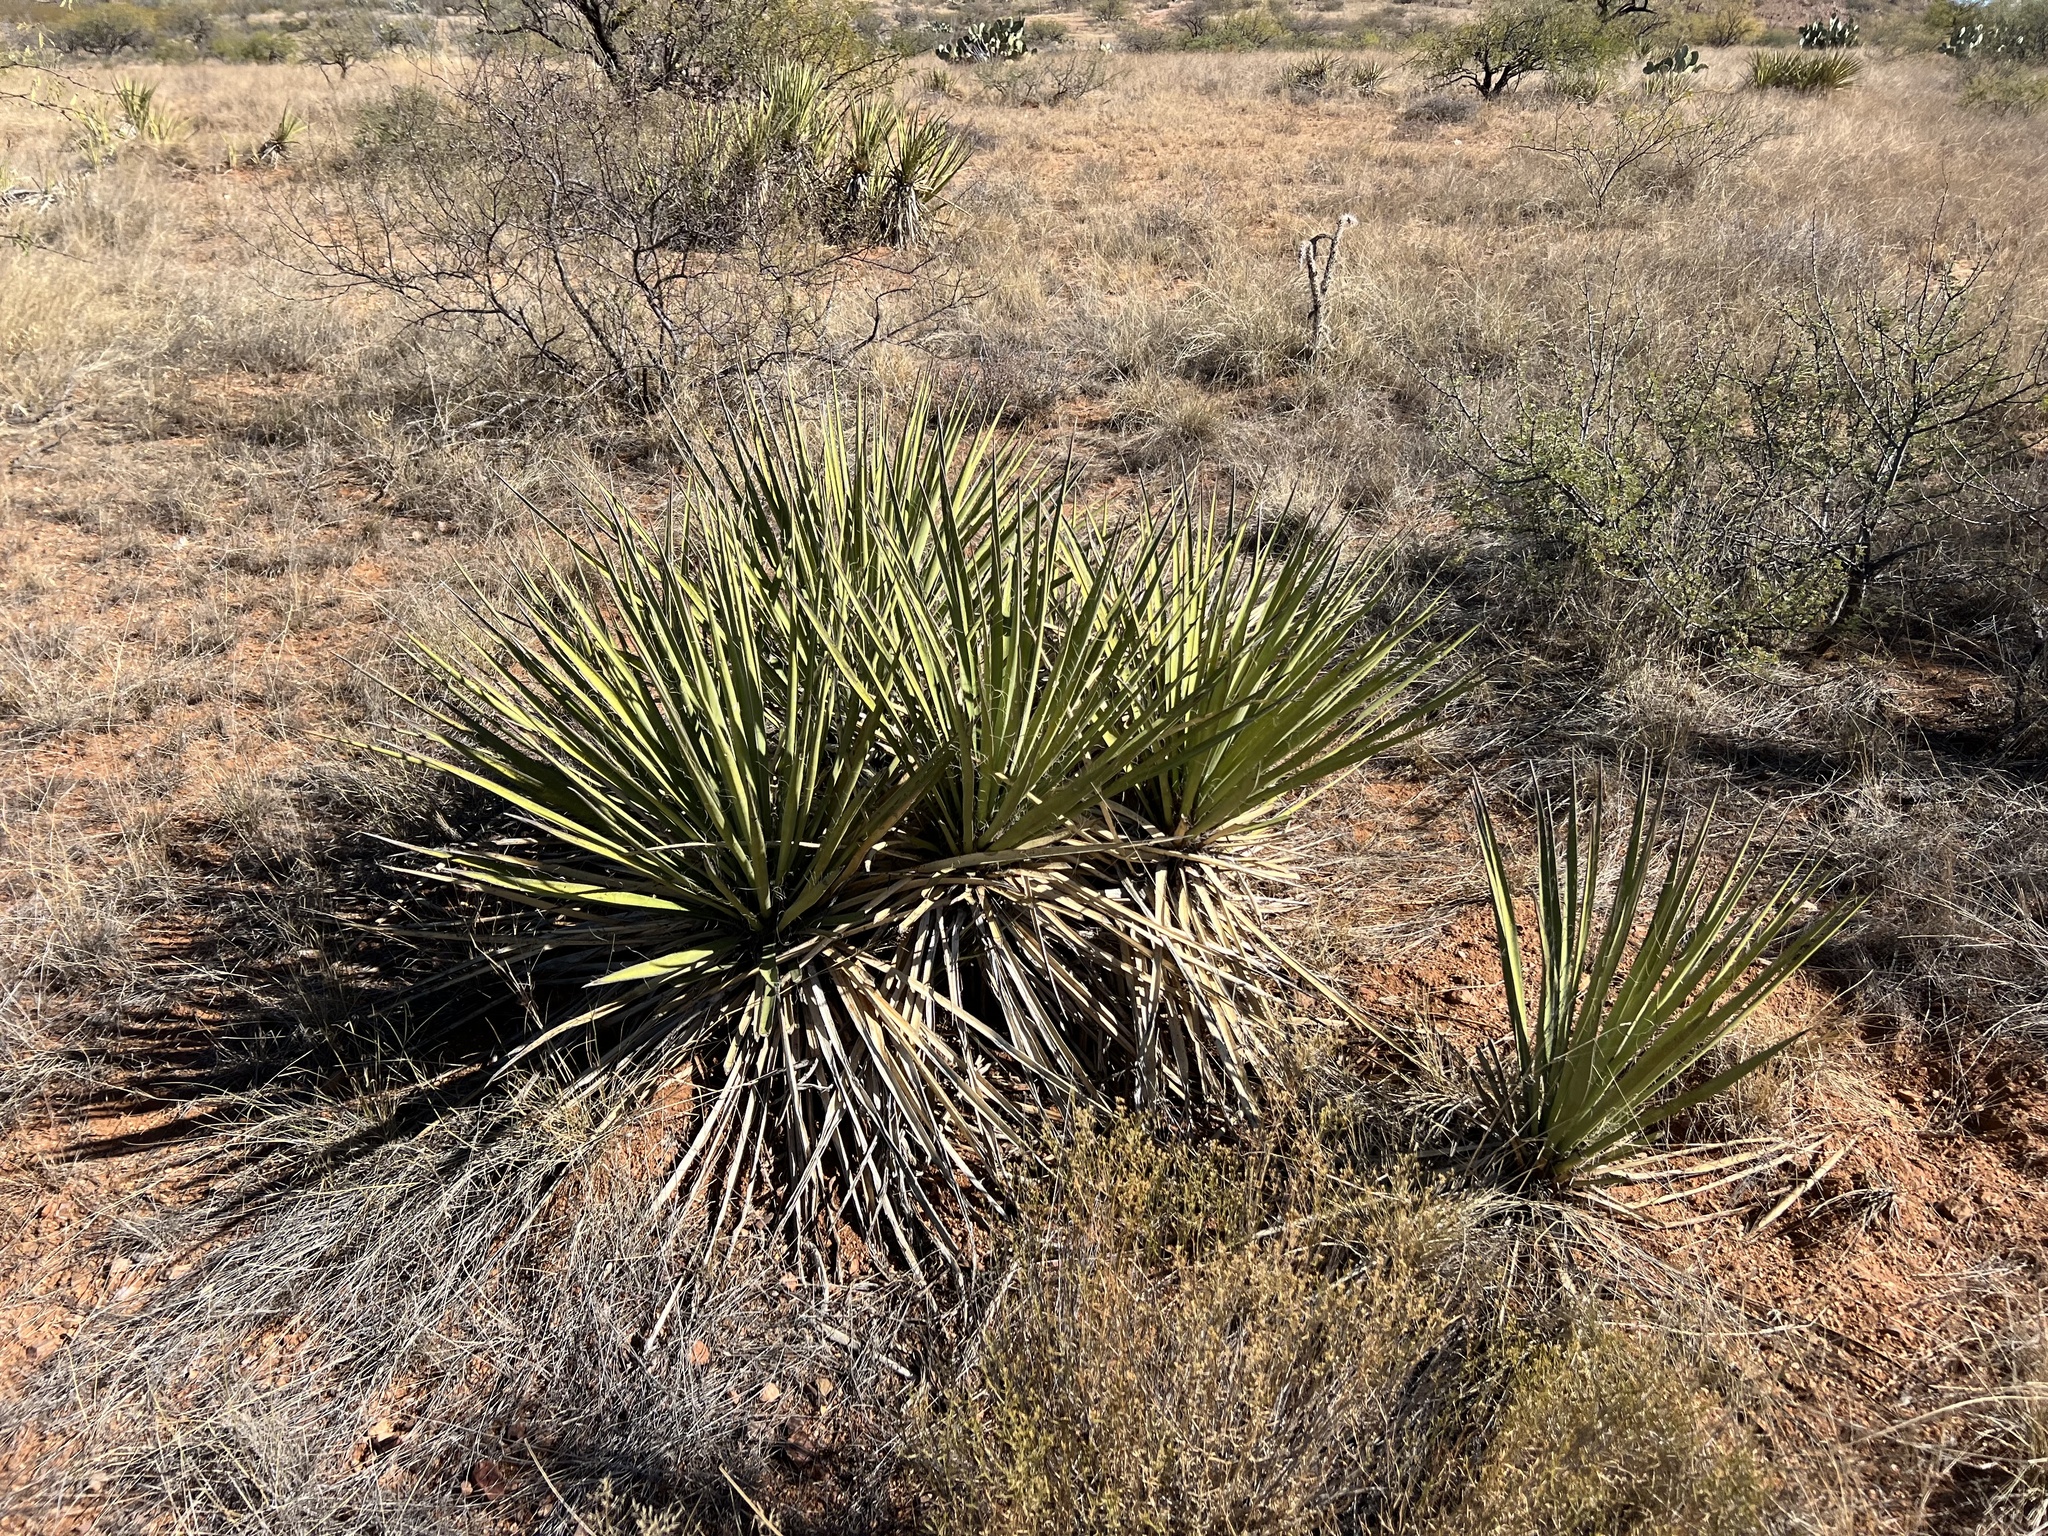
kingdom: Plantae
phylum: Tracheophyta
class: Liliopsida
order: Asparagales
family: Asparagaceae
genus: Yucca
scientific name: Yucca baccata
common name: Banana yucca
